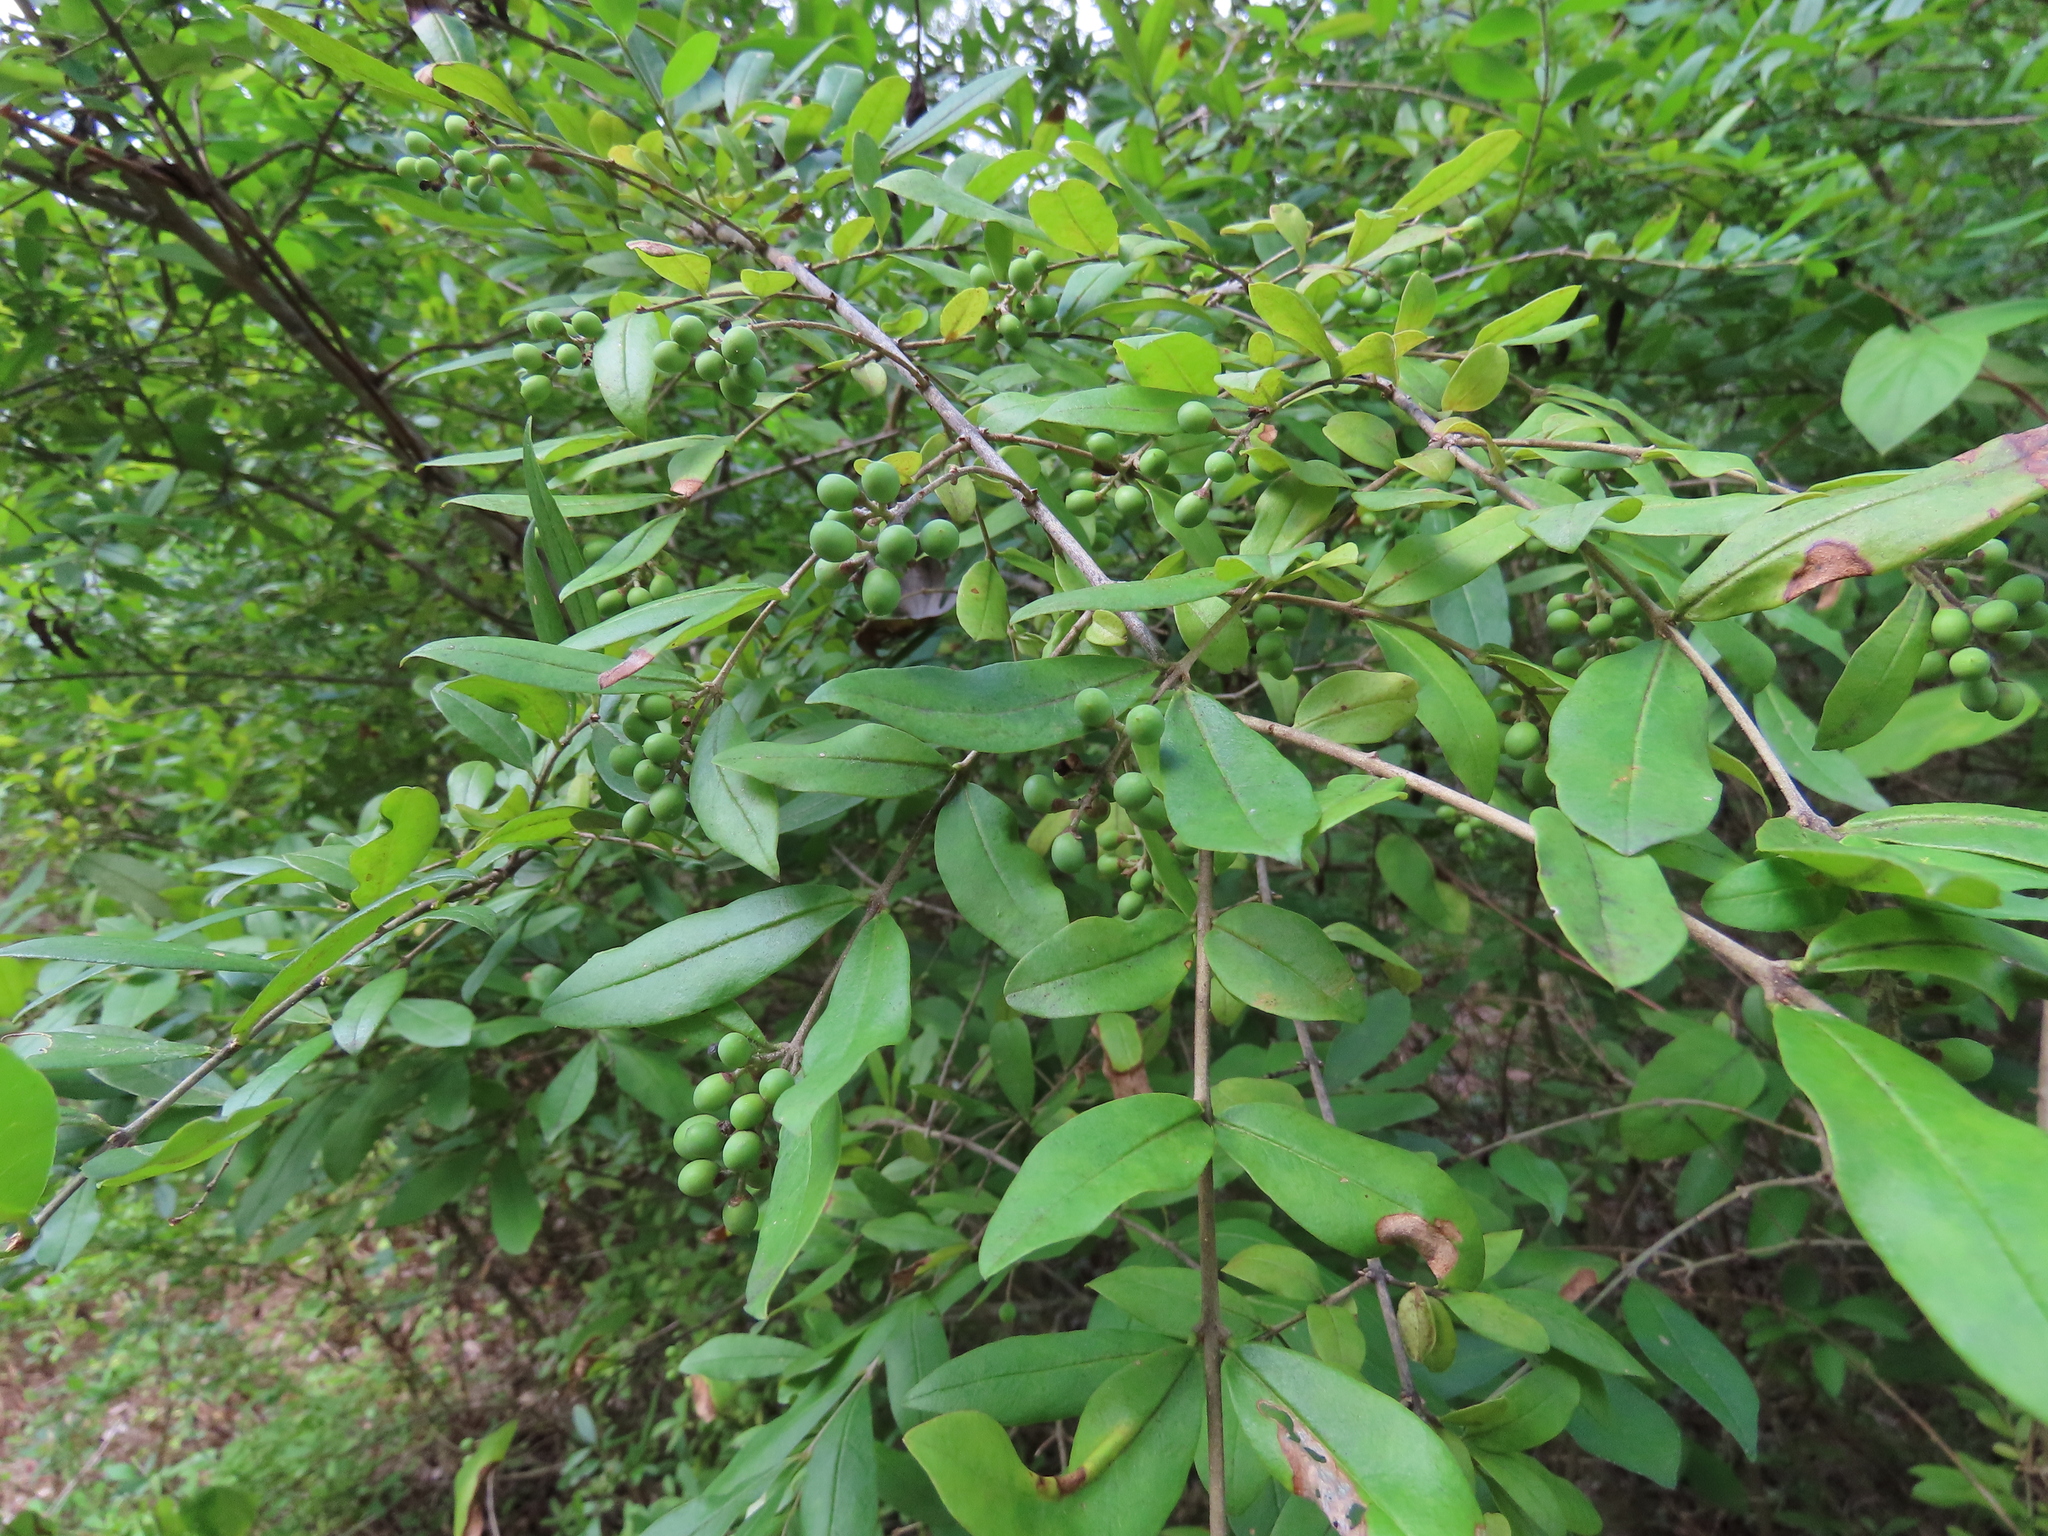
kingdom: Plantae
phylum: Tracheophyta
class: Magnoliopsida
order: Lamiales
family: Oleaceae
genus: Ligustrum
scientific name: Ligustrum obtusifolium
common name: Border privet
